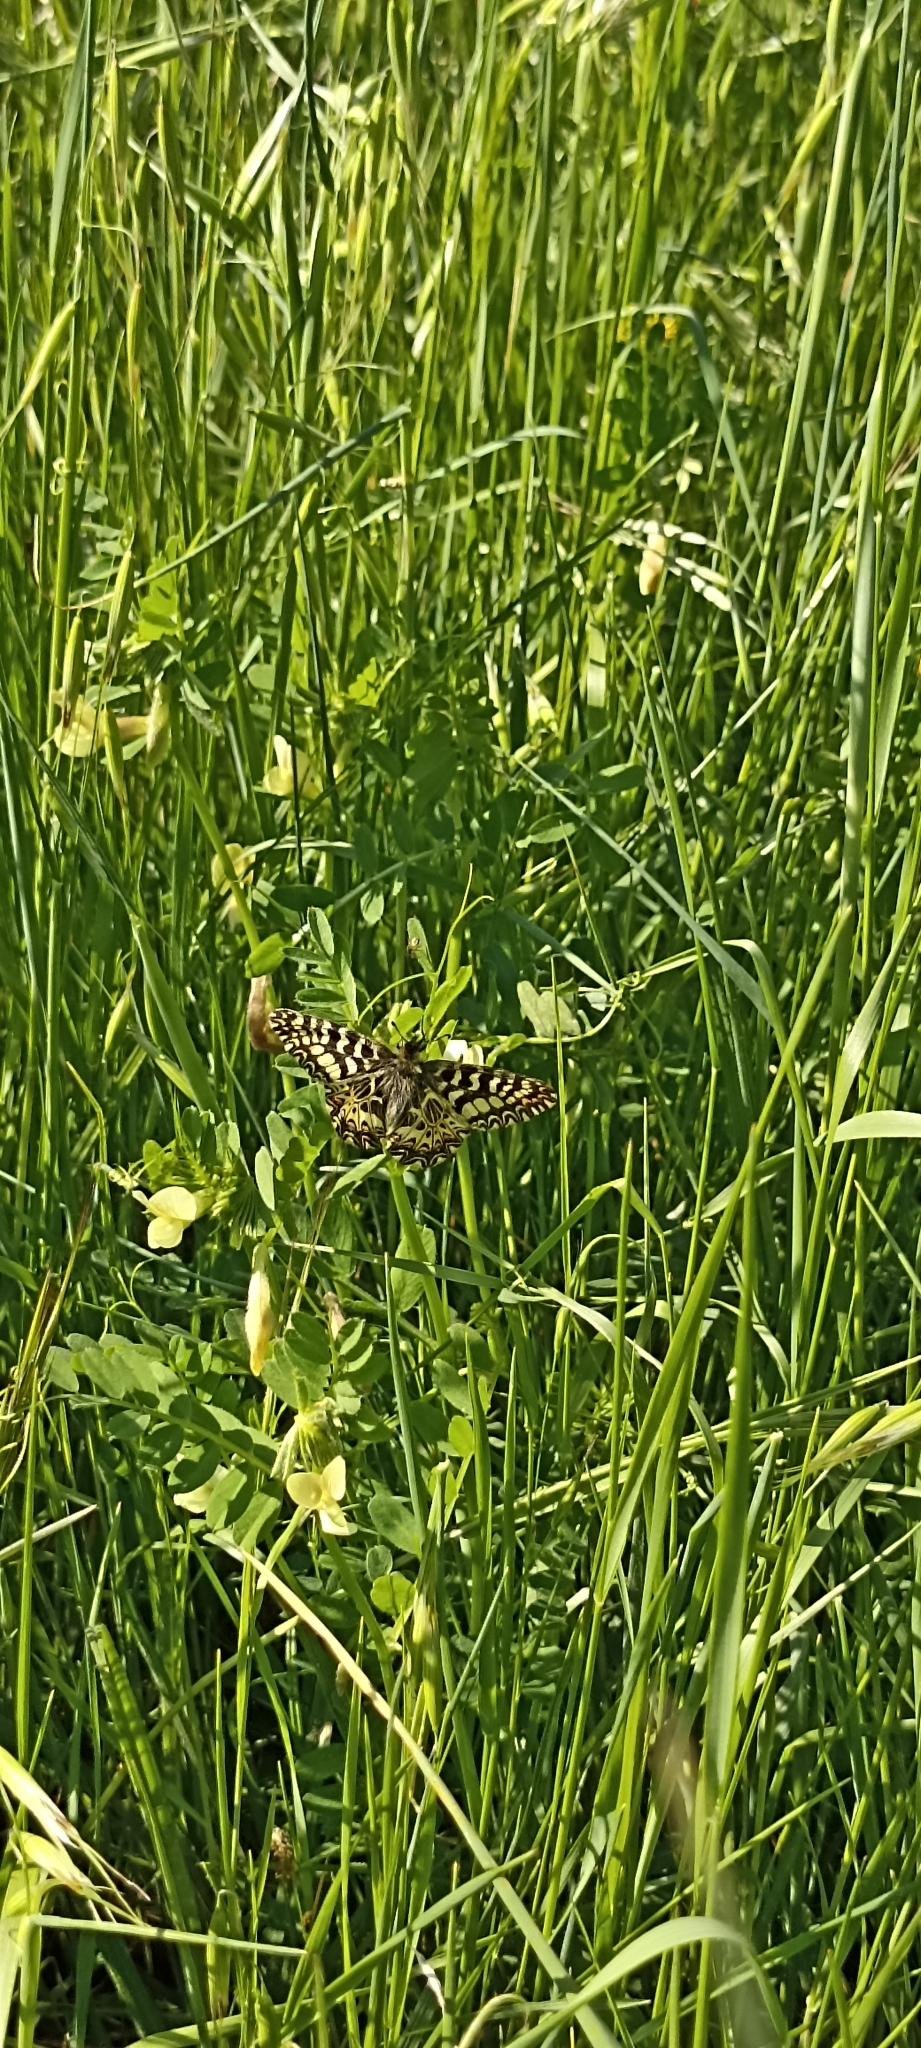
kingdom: Animalia
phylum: Arthropoda
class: Insecta
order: Lepidoptera
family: Papilionidae
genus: Zerynthia
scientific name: Zerynthia polyxena
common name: Southern festoon
